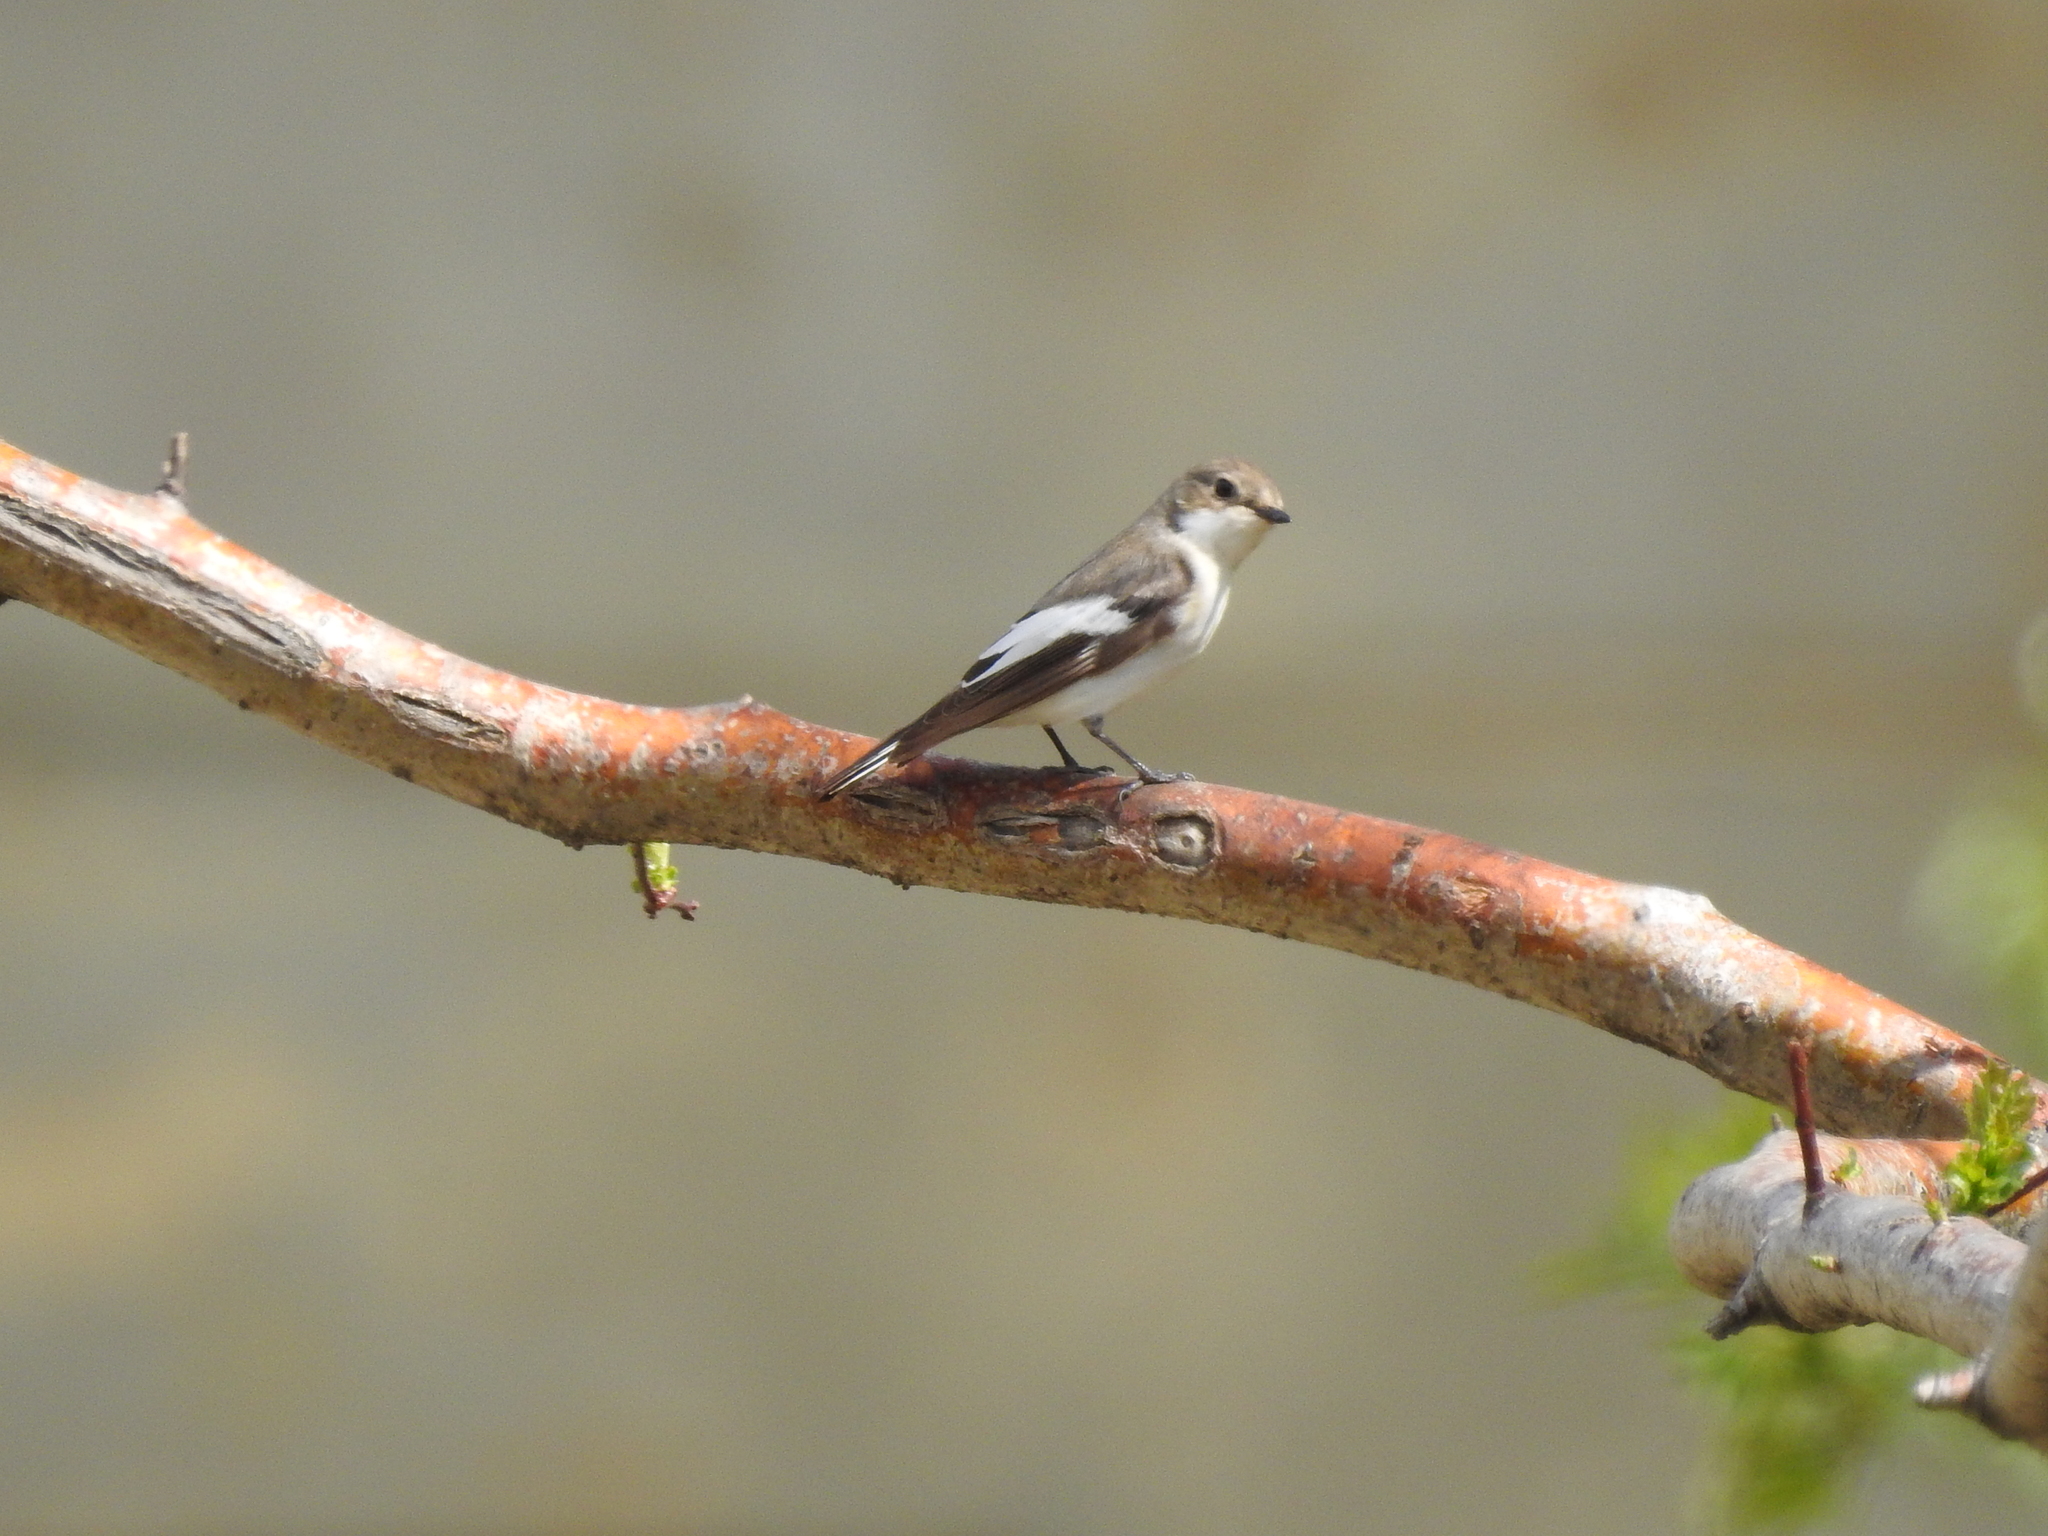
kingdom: Animalia
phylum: Chordata
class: Aves
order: Passeriformes
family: Muscicapidae
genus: Ficedula
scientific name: Ficedula hypoleuca
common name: European pied flycatcher
